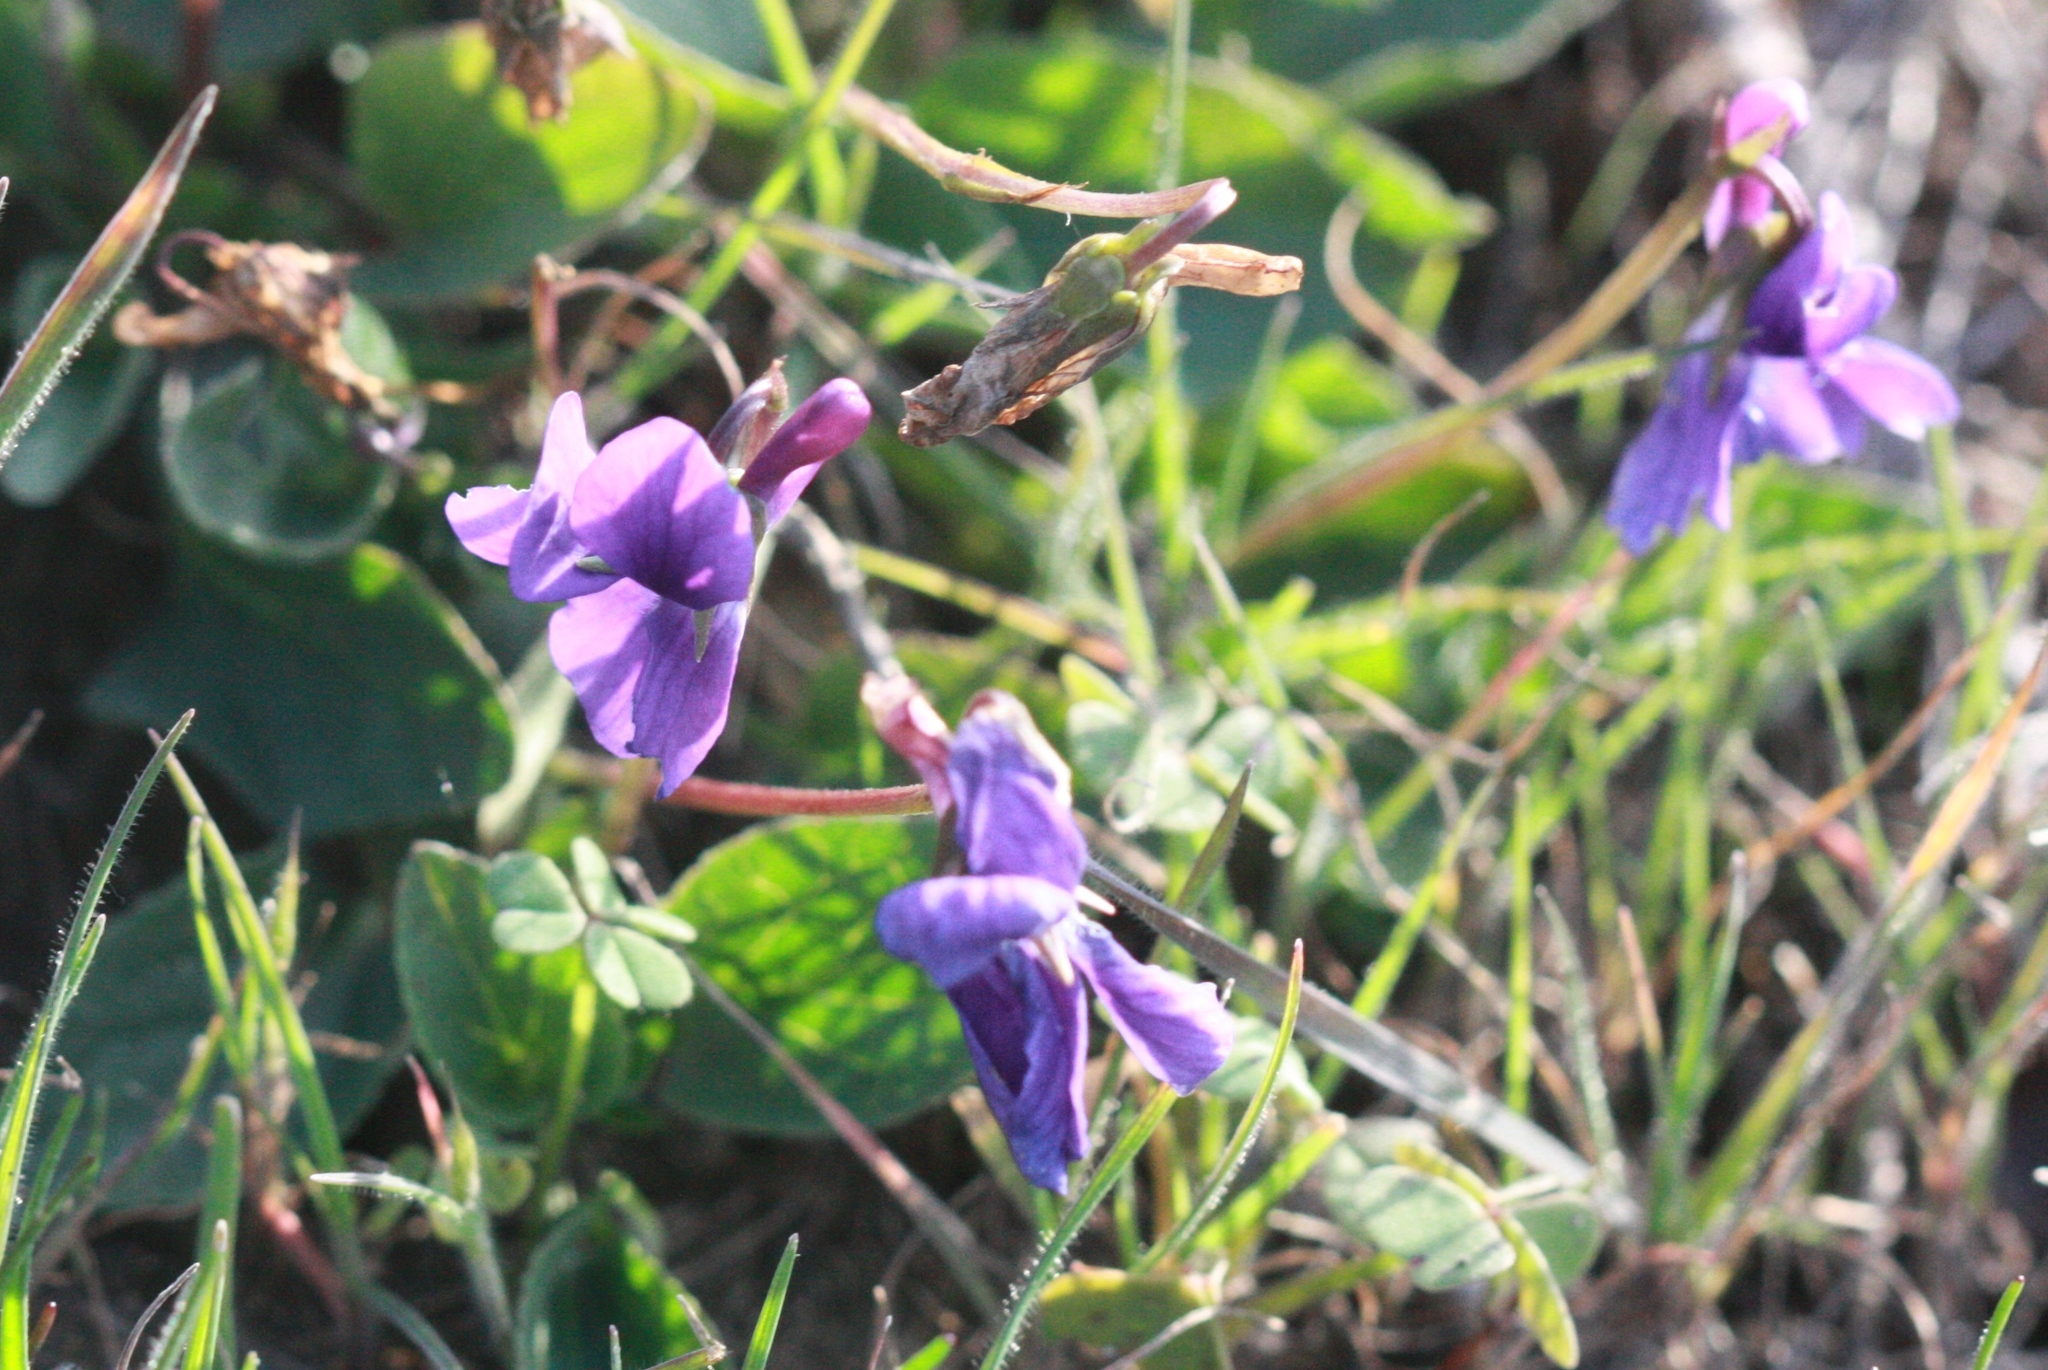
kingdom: Plantae
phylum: Tracheophyta
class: Magnoliopsida
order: Malpighiales
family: Violaceae
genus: Viola
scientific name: Viola adunca
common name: Sand violet
